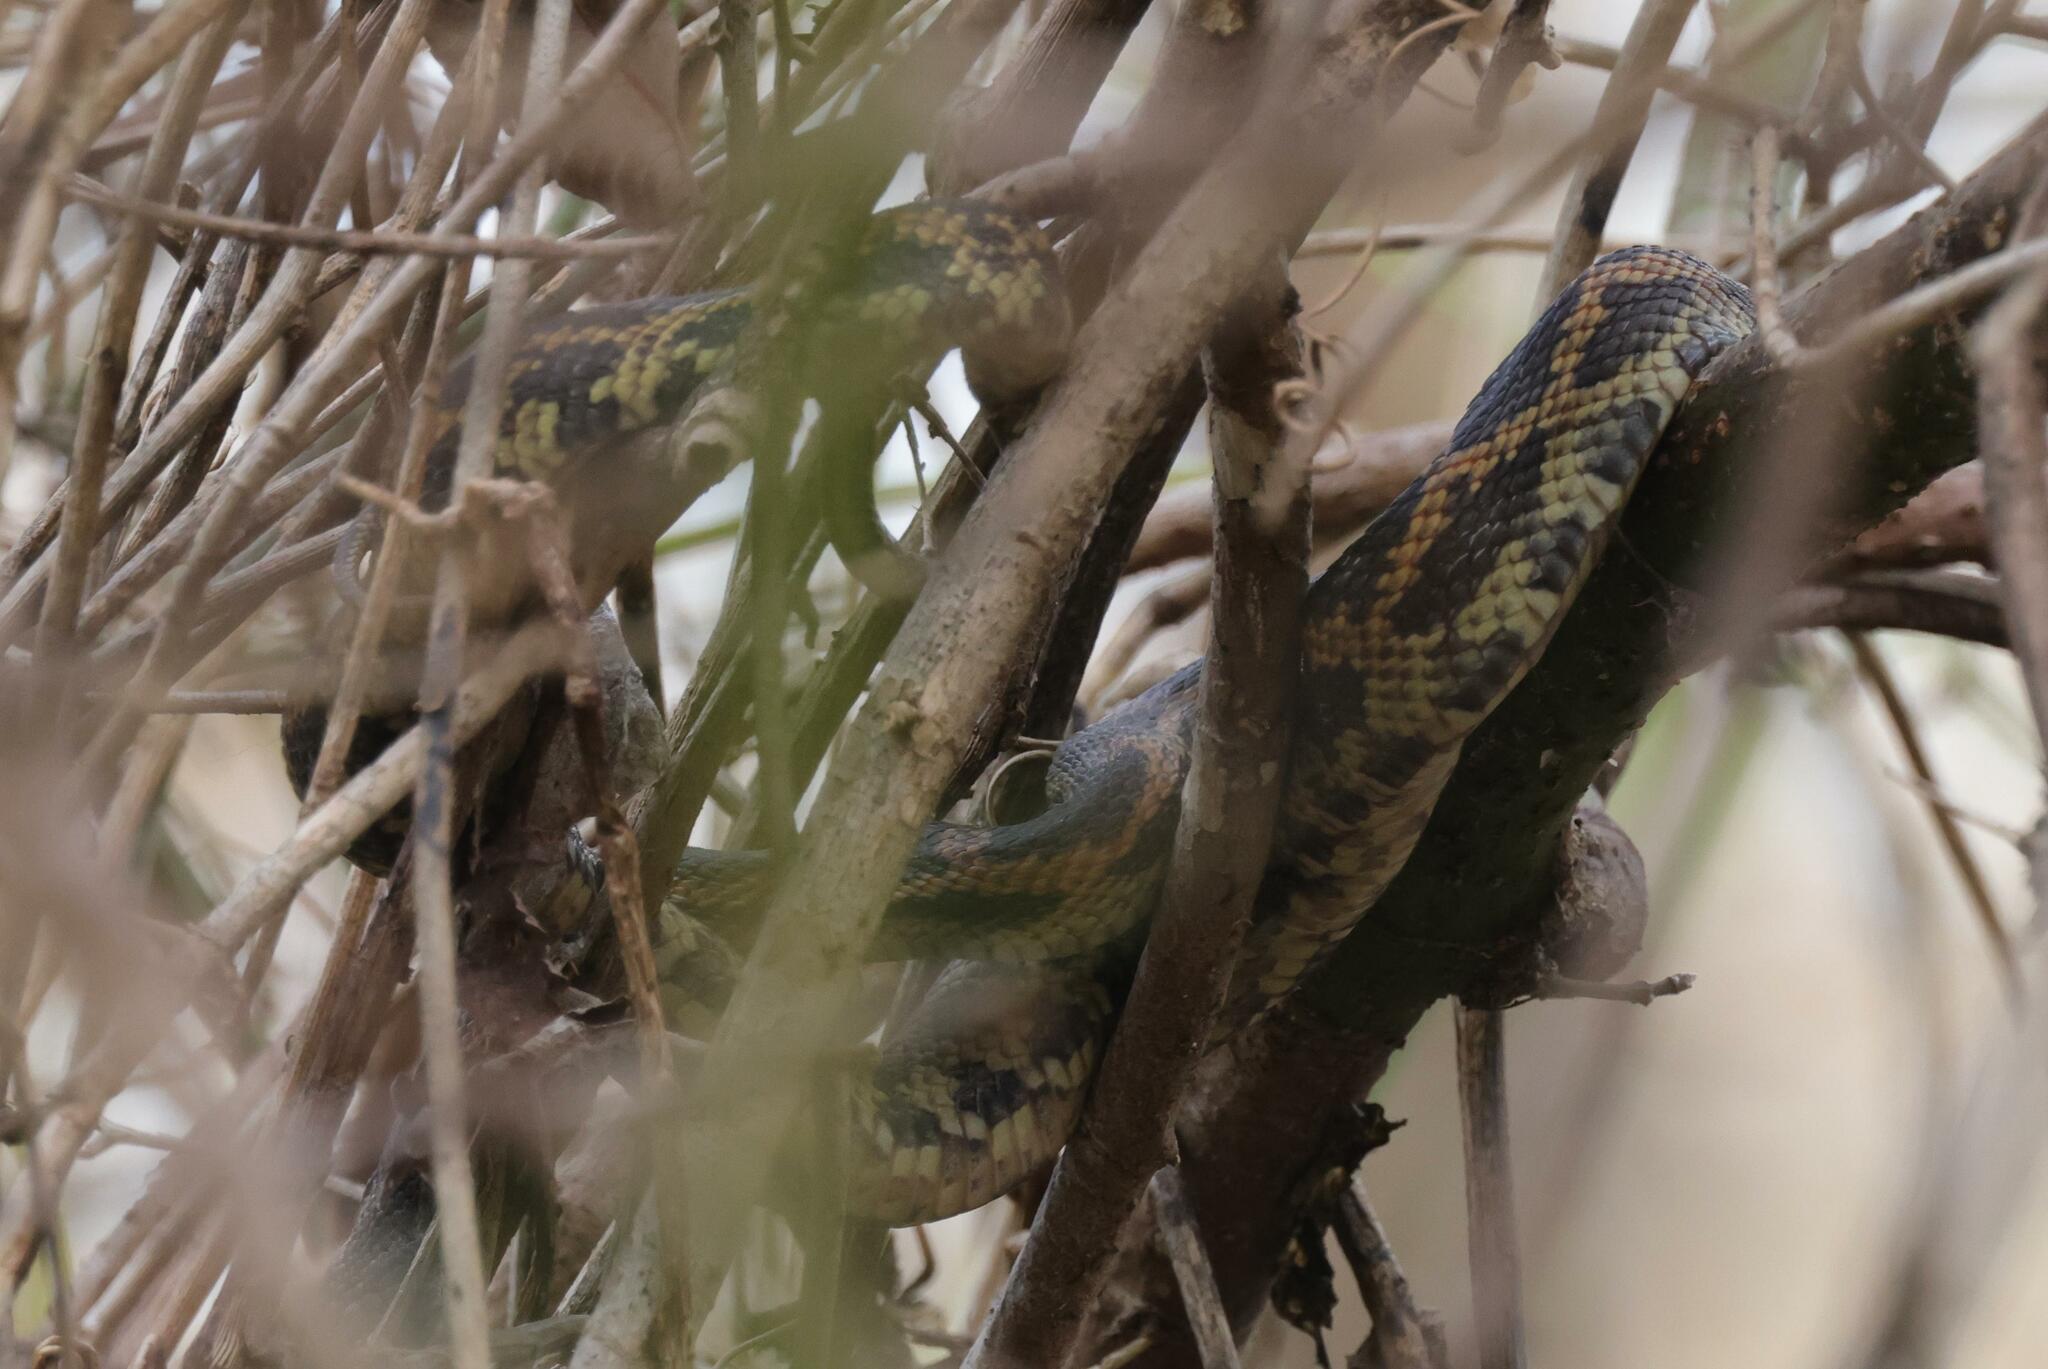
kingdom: Animalia
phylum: Chordata
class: Squamata
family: Colubridae
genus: Pantherophis
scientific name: Pantherophis obsoletus
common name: Black rat snake
